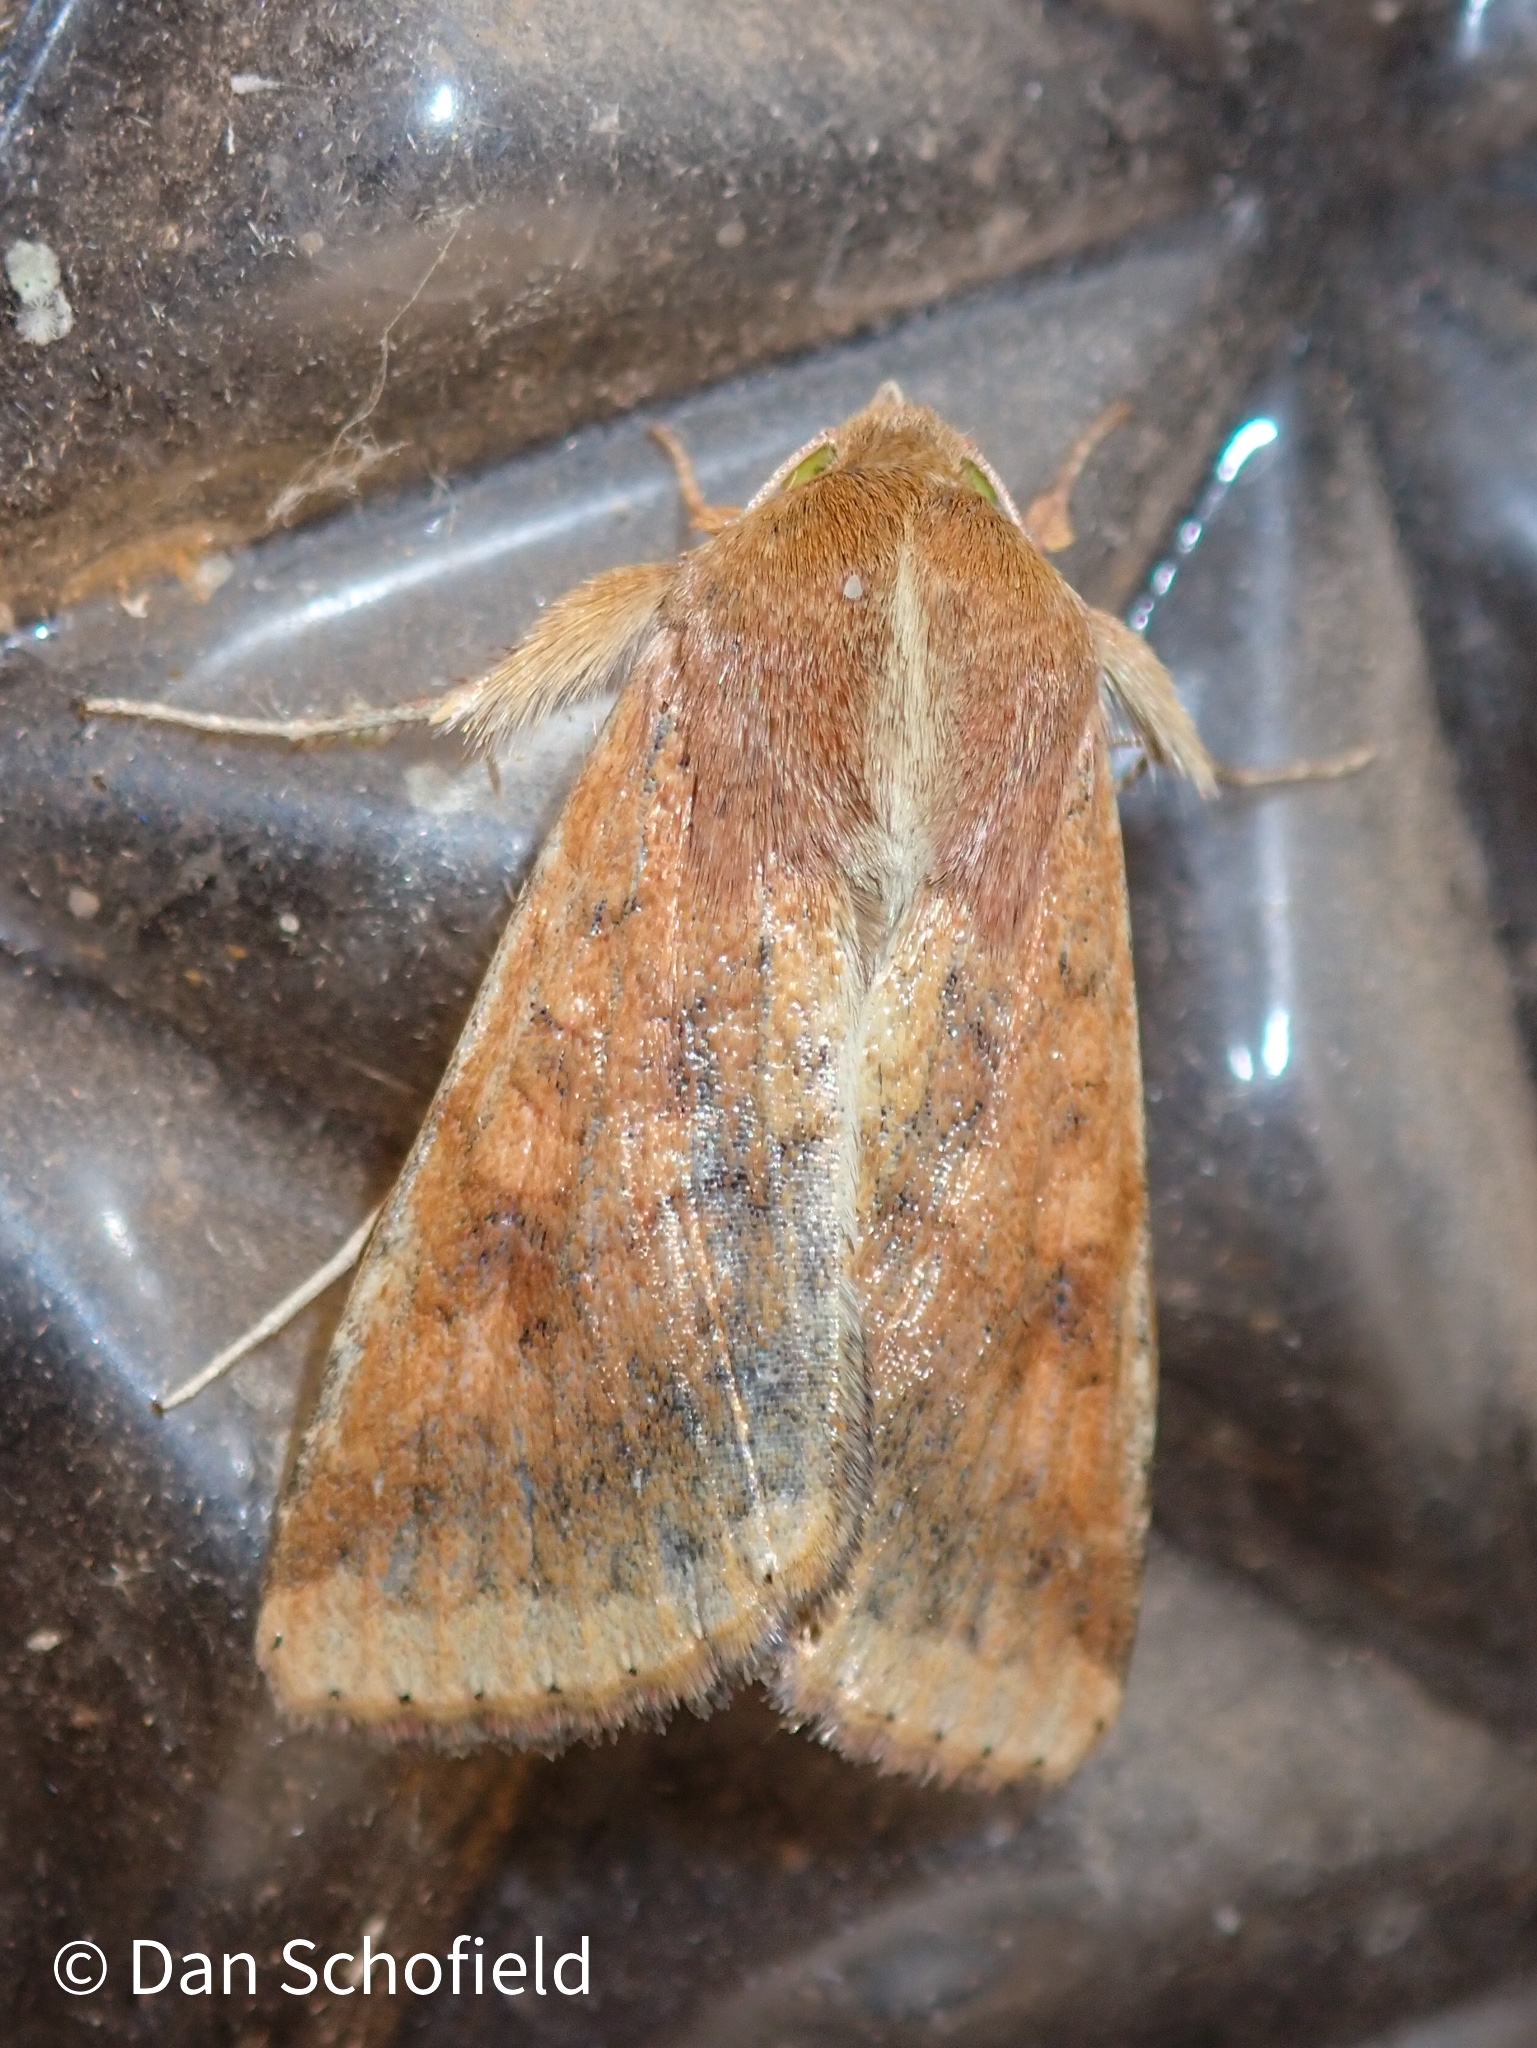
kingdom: Animalia
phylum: Arthropoda
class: Insecta
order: Lepidoptera
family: Noctuidae
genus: Helicoverpa
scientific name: Helicoverpa armigera
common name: Cotton bollworm
